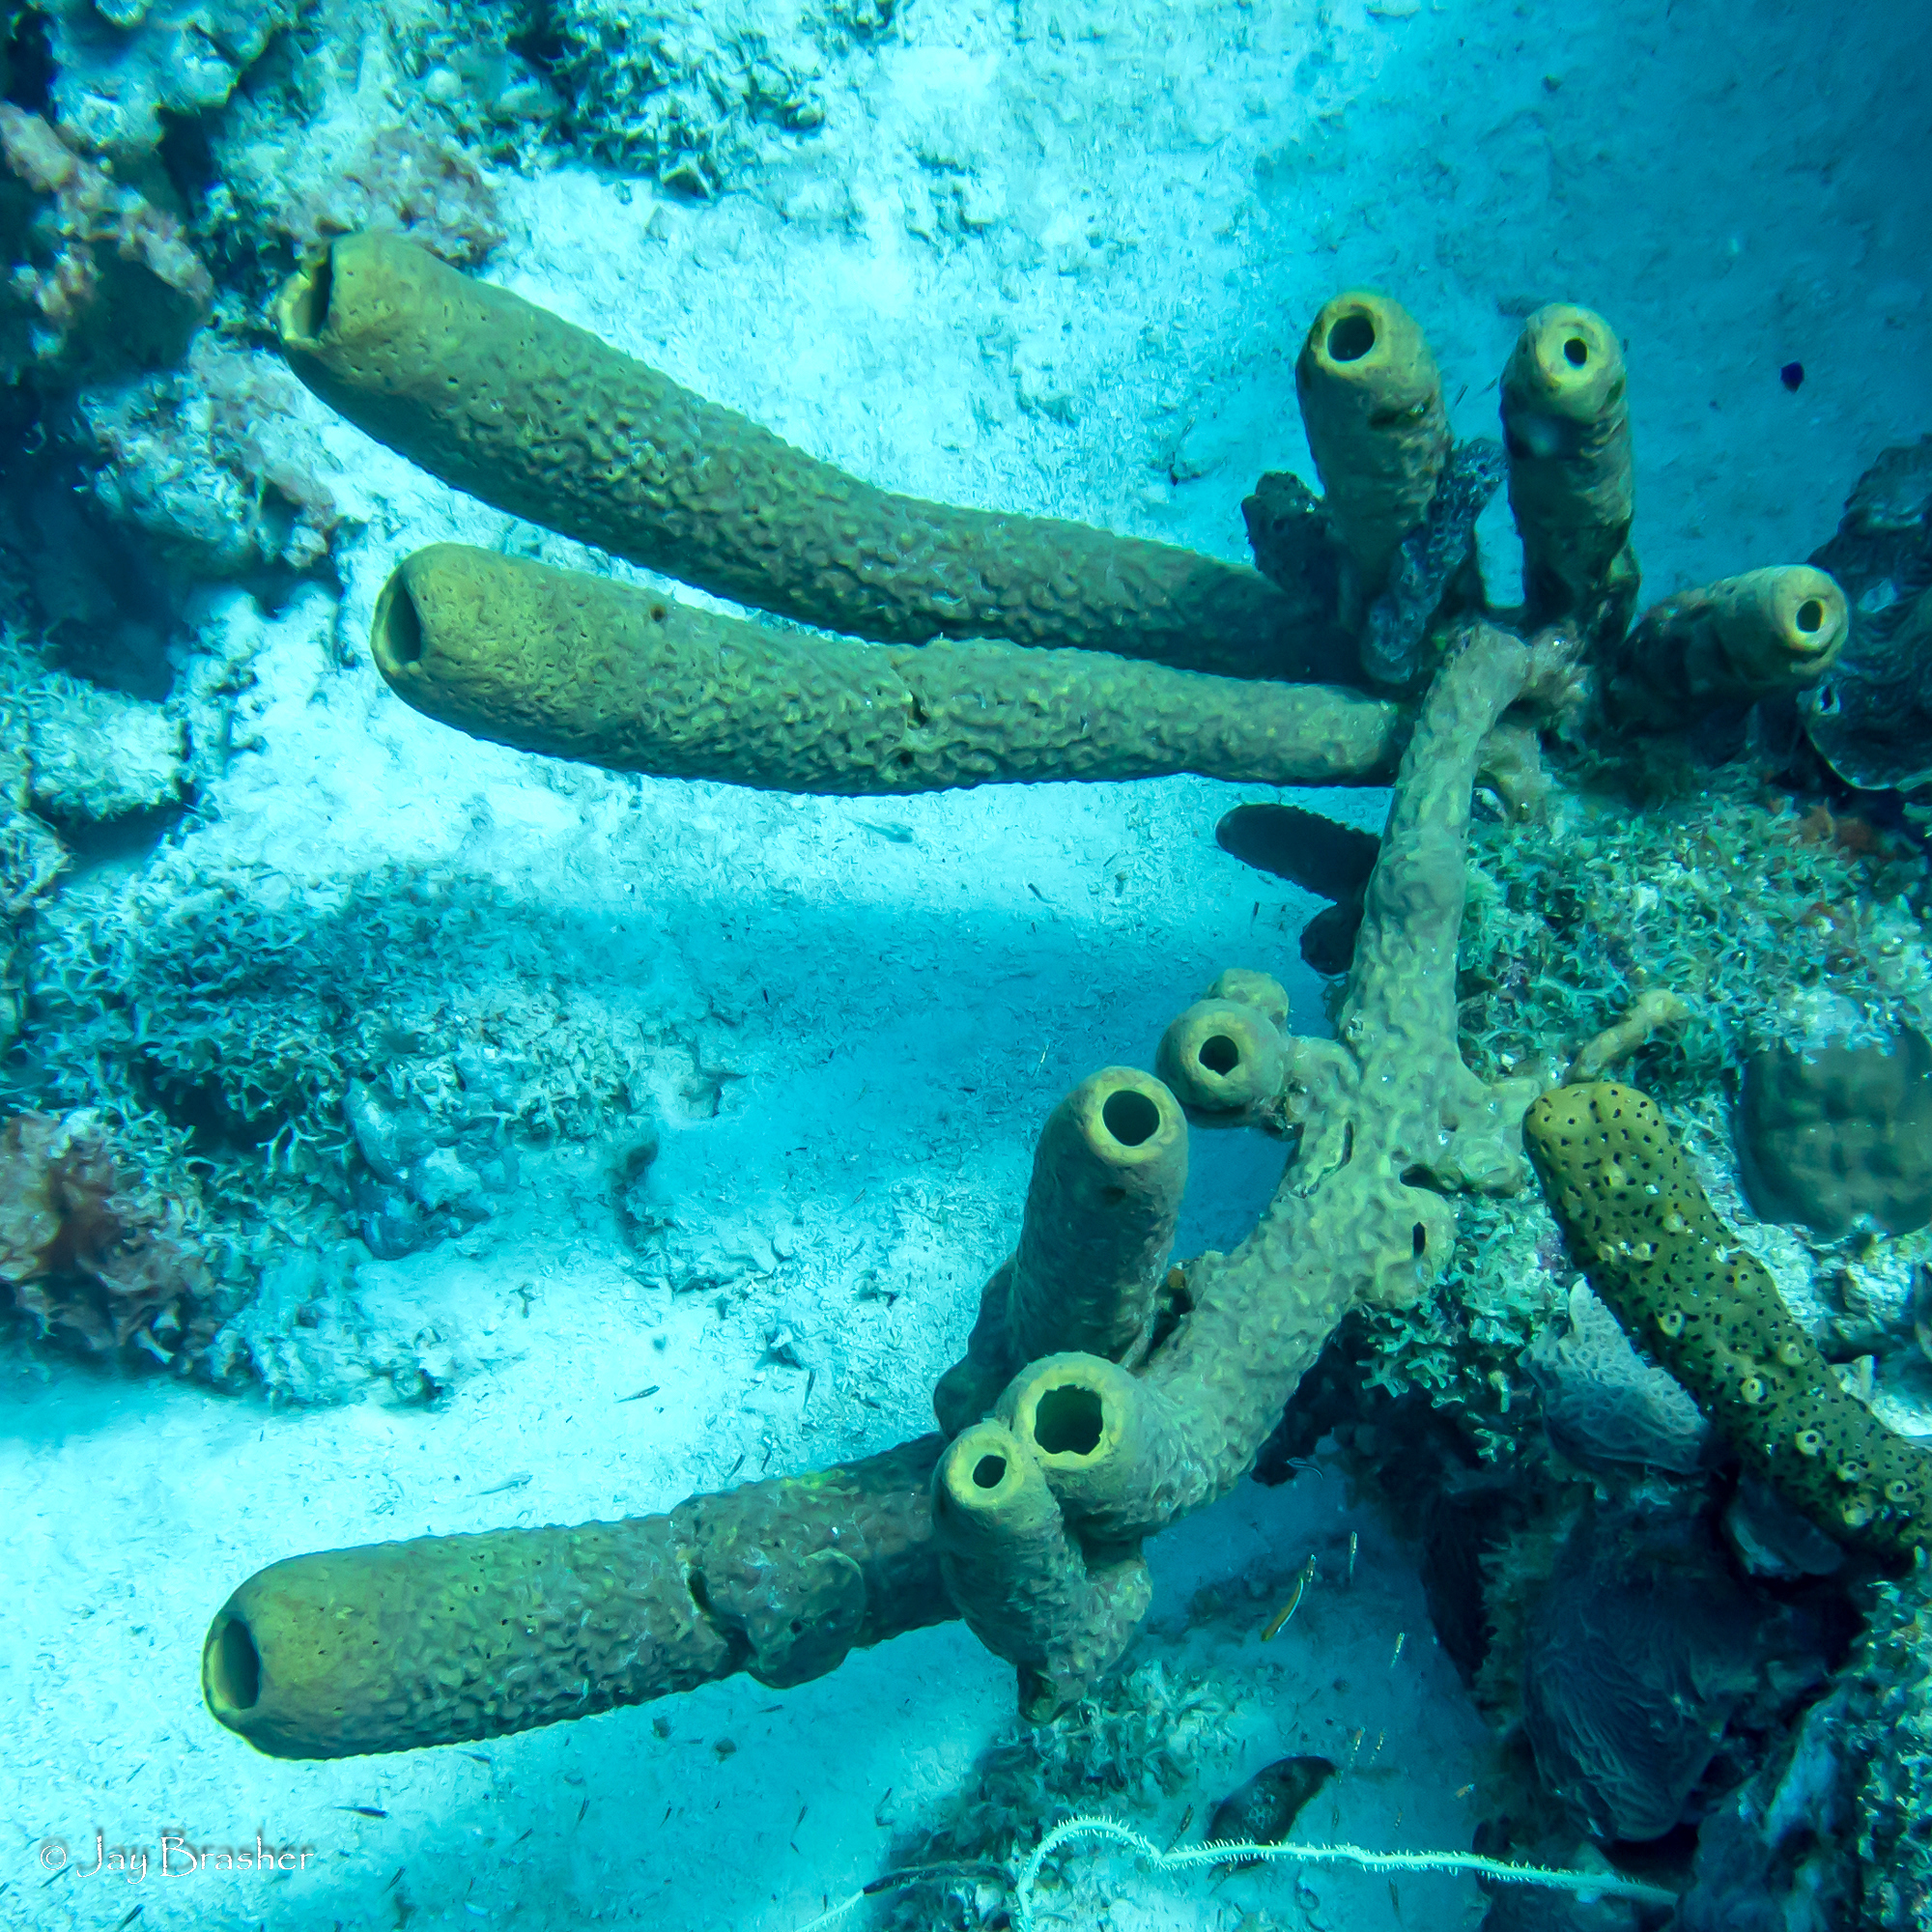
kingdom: Animalia
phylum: Porifera
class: Demospongiae
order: Verongiida
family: Aplysinidae
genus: Aplysina
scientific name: Aplysina archeri
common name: Stove-pipe sponge
